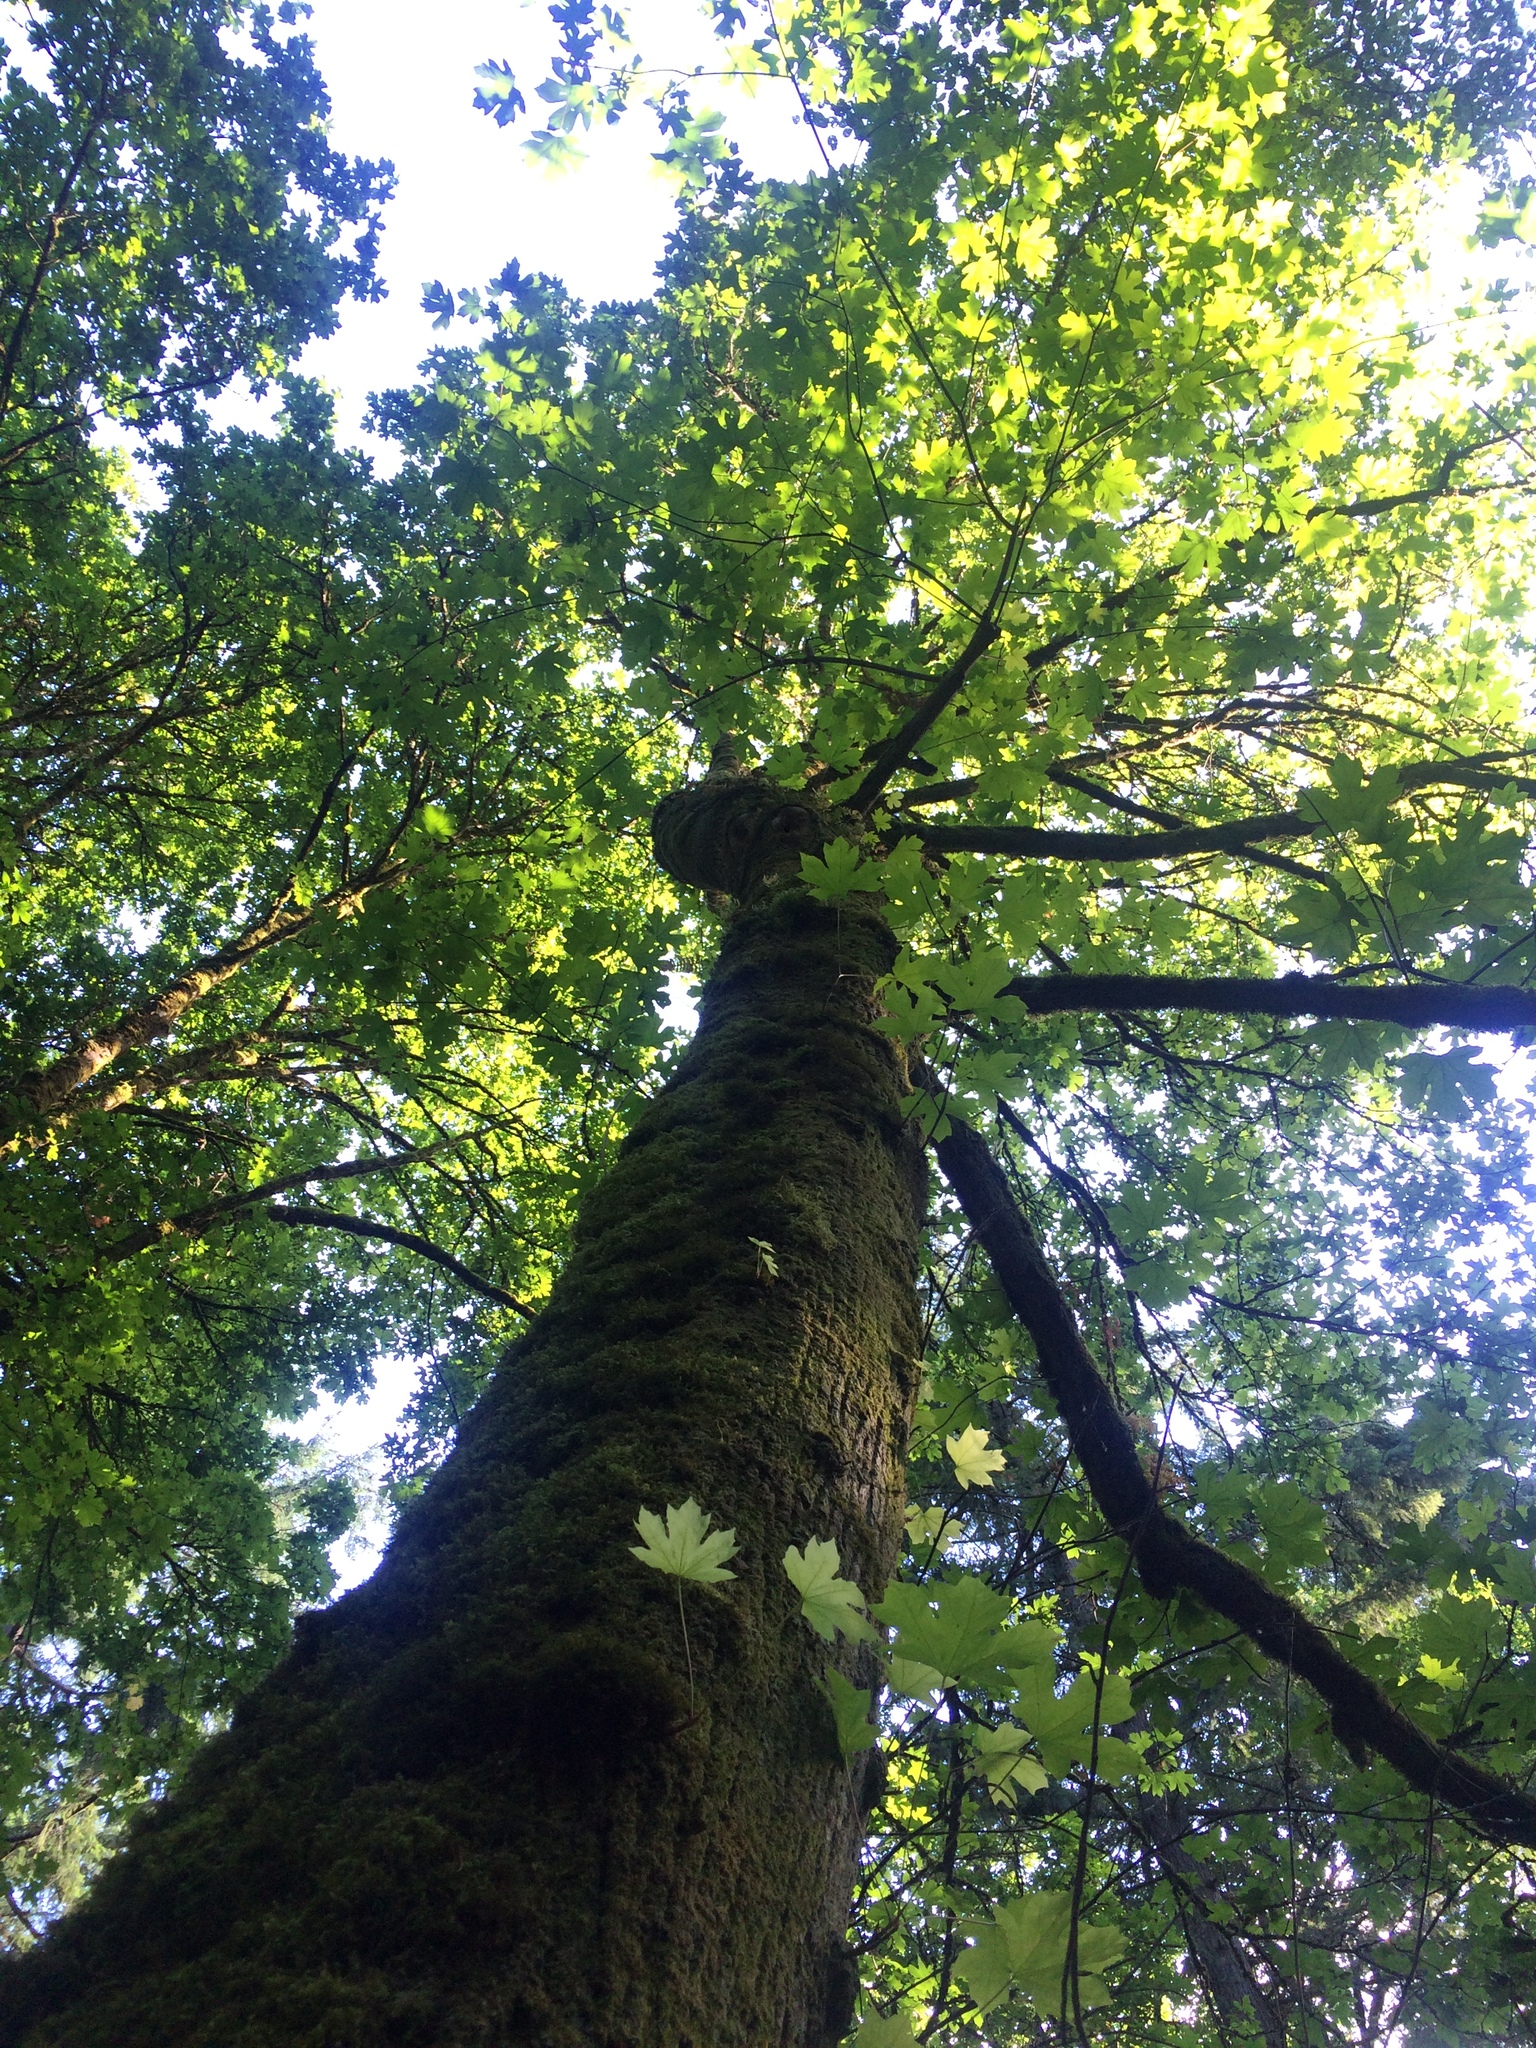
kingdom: Plantae
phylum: Tracheophyta
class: Magnoliopsida
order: Sapindales
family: Sapindaceae
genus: Acer
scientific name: Acer macrophyllum
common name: Oregon maple
